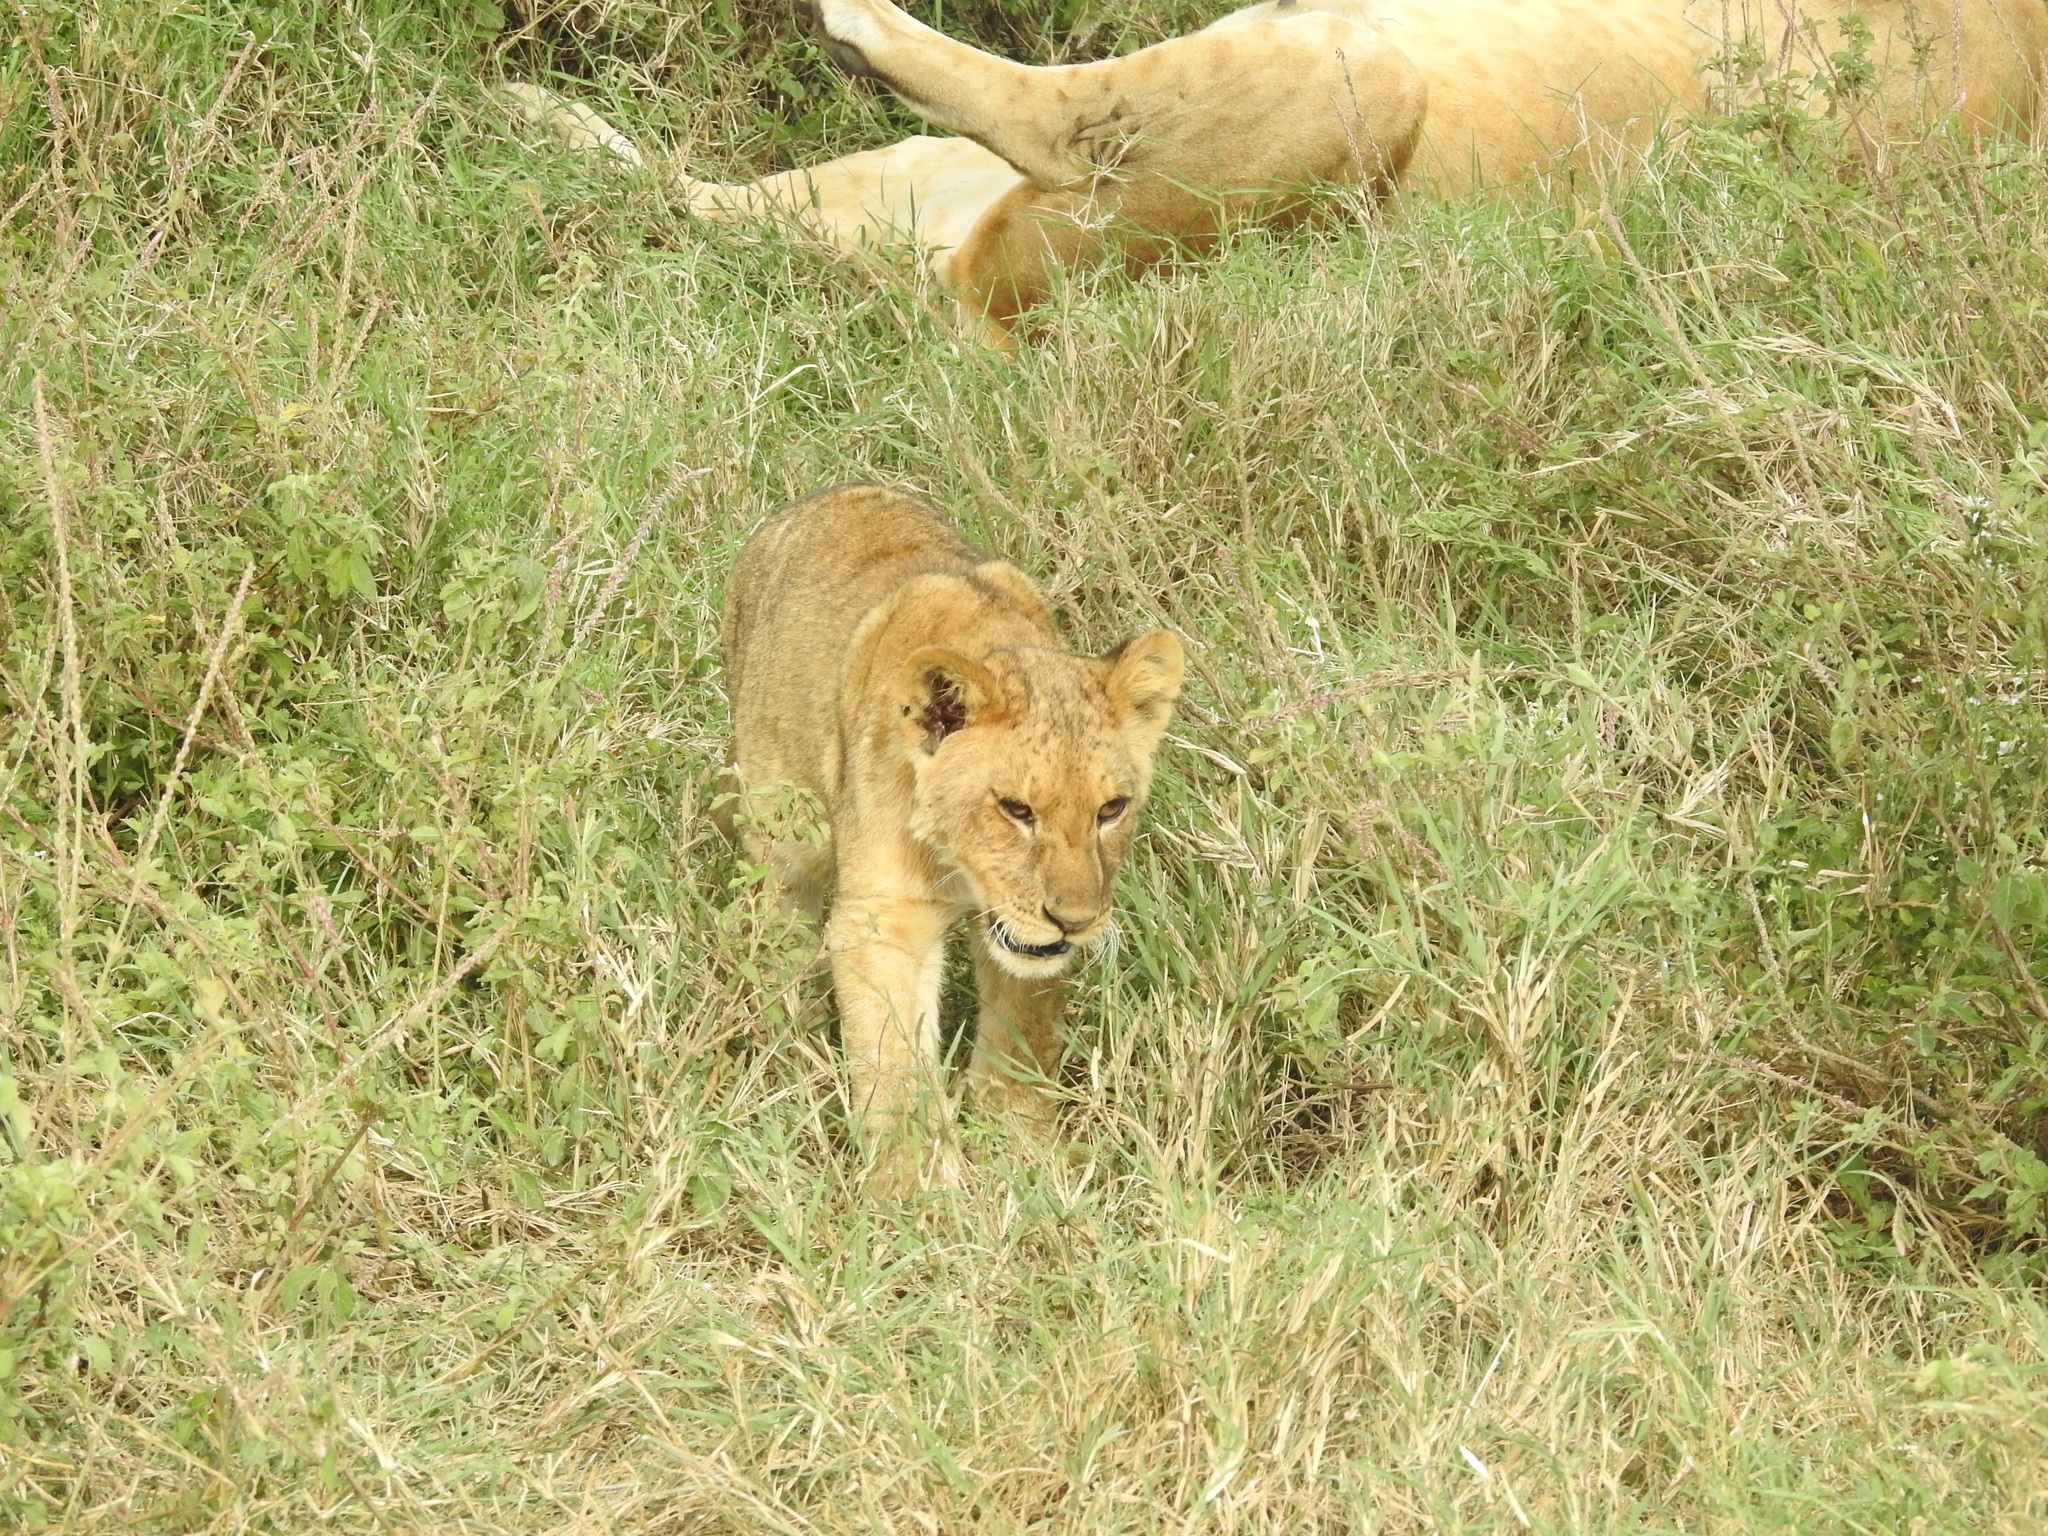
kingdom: Animalia
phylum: Chordata
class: Mammalia
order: Carnivora
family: Felidae
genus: Panthera
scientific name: Panthera leo
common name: Lion
